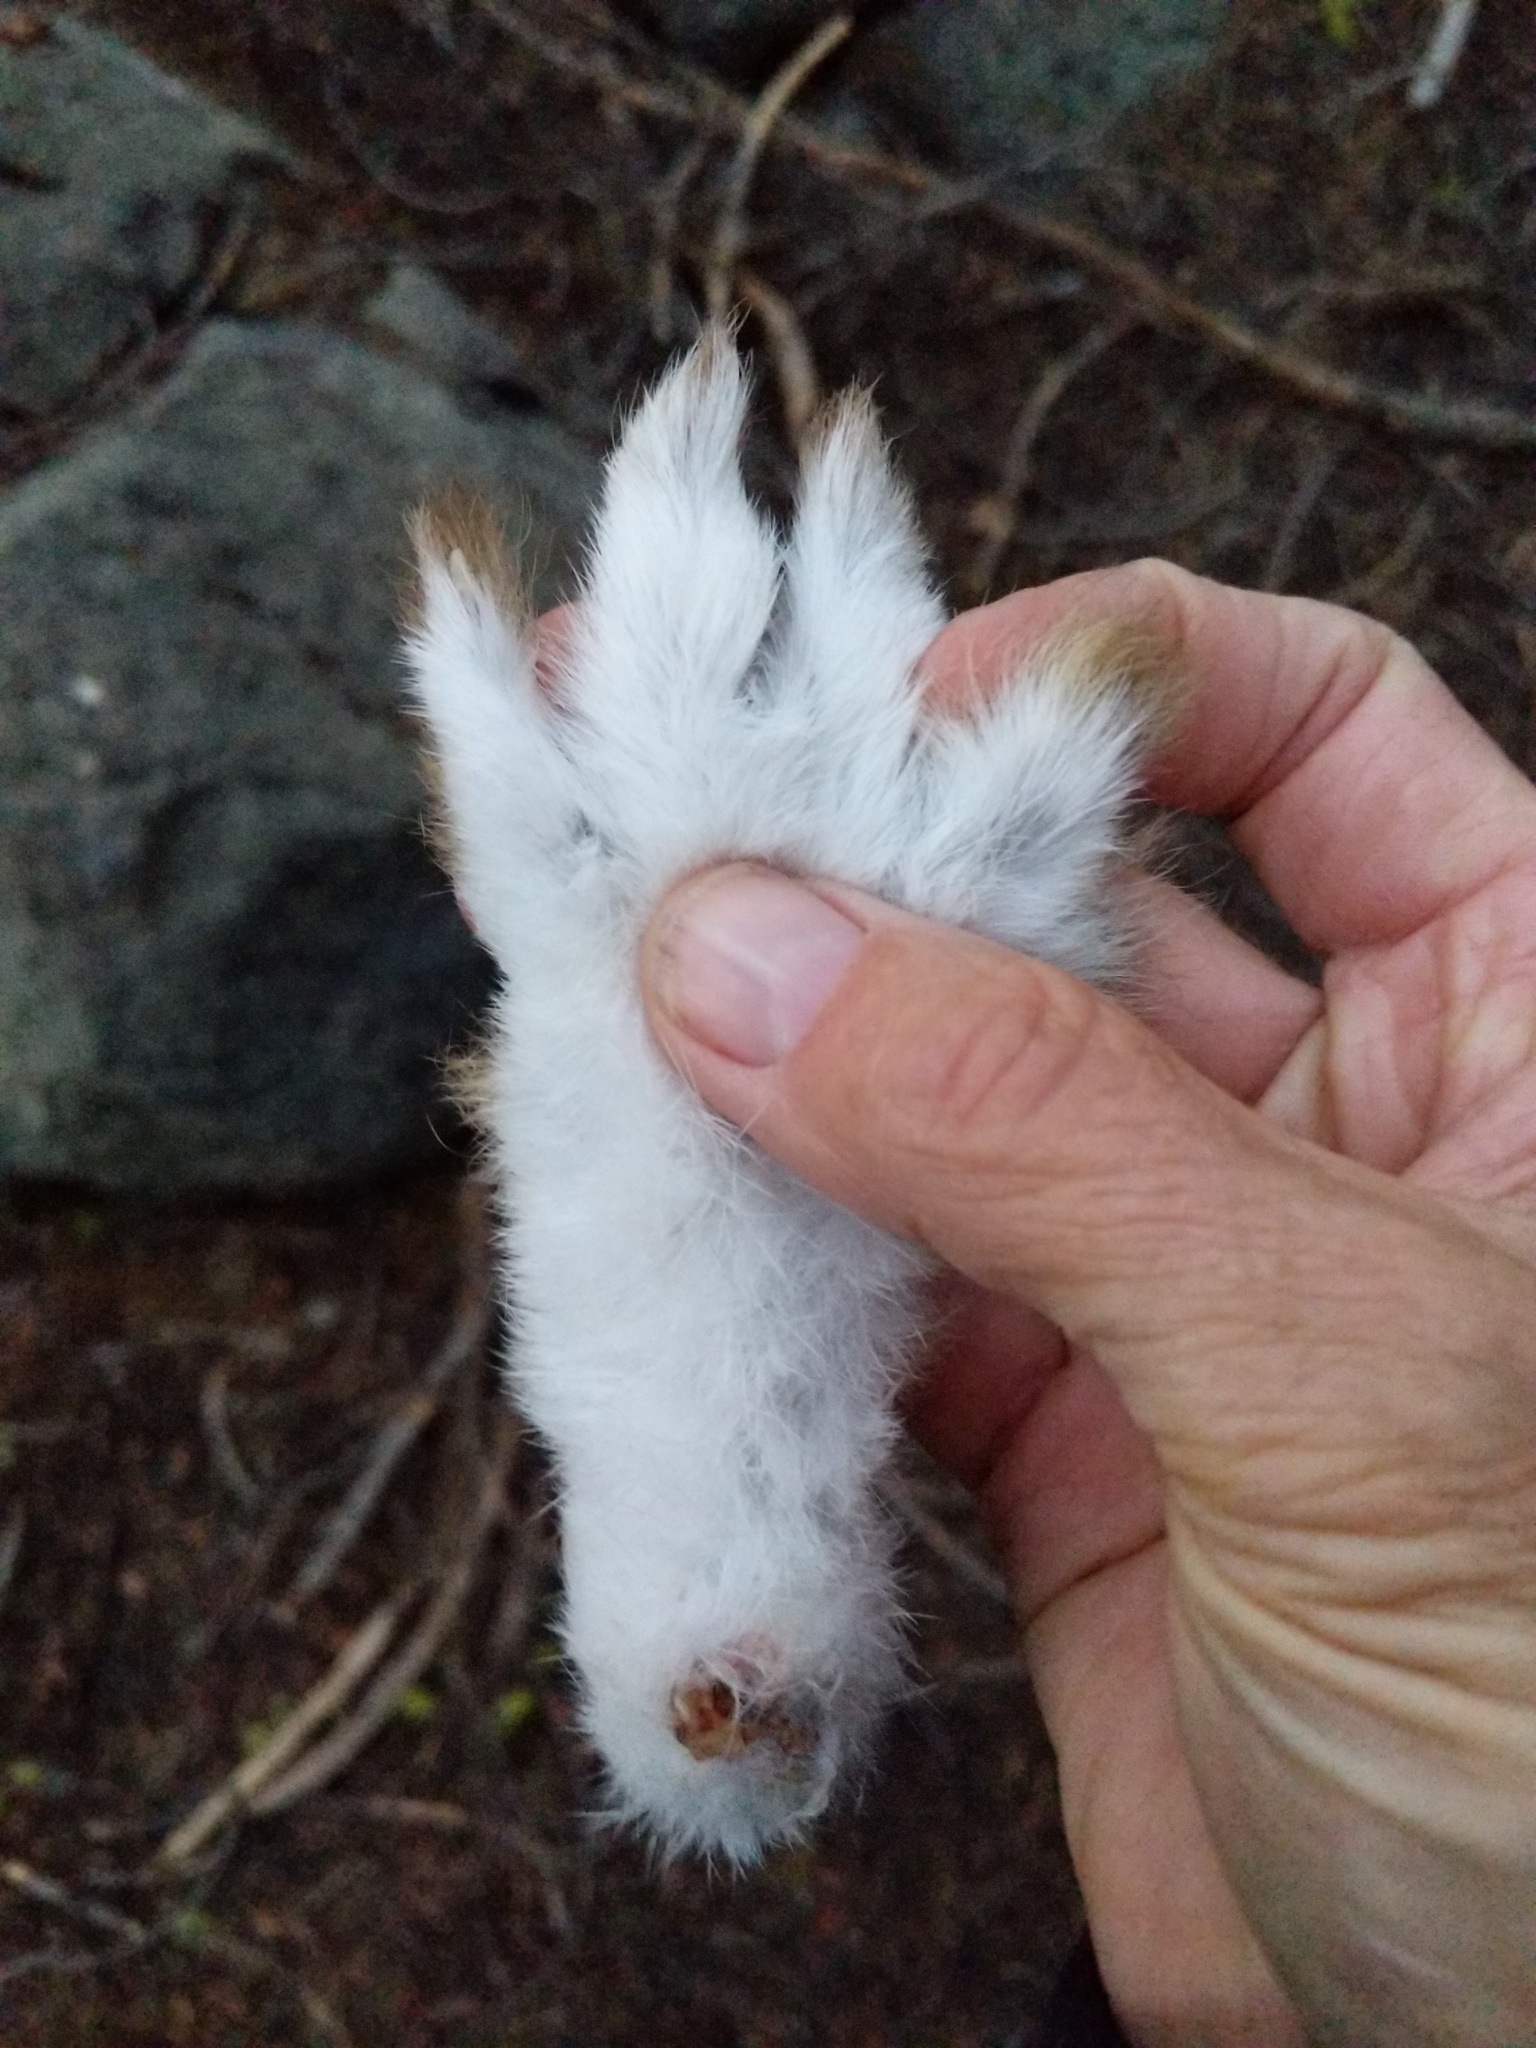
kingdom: Animalia
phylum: Chordata
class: Mammalia
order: Lagomorpha
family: Leporidae
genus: Lepus
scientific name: Lepus americanus
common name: Snowshoe hare
